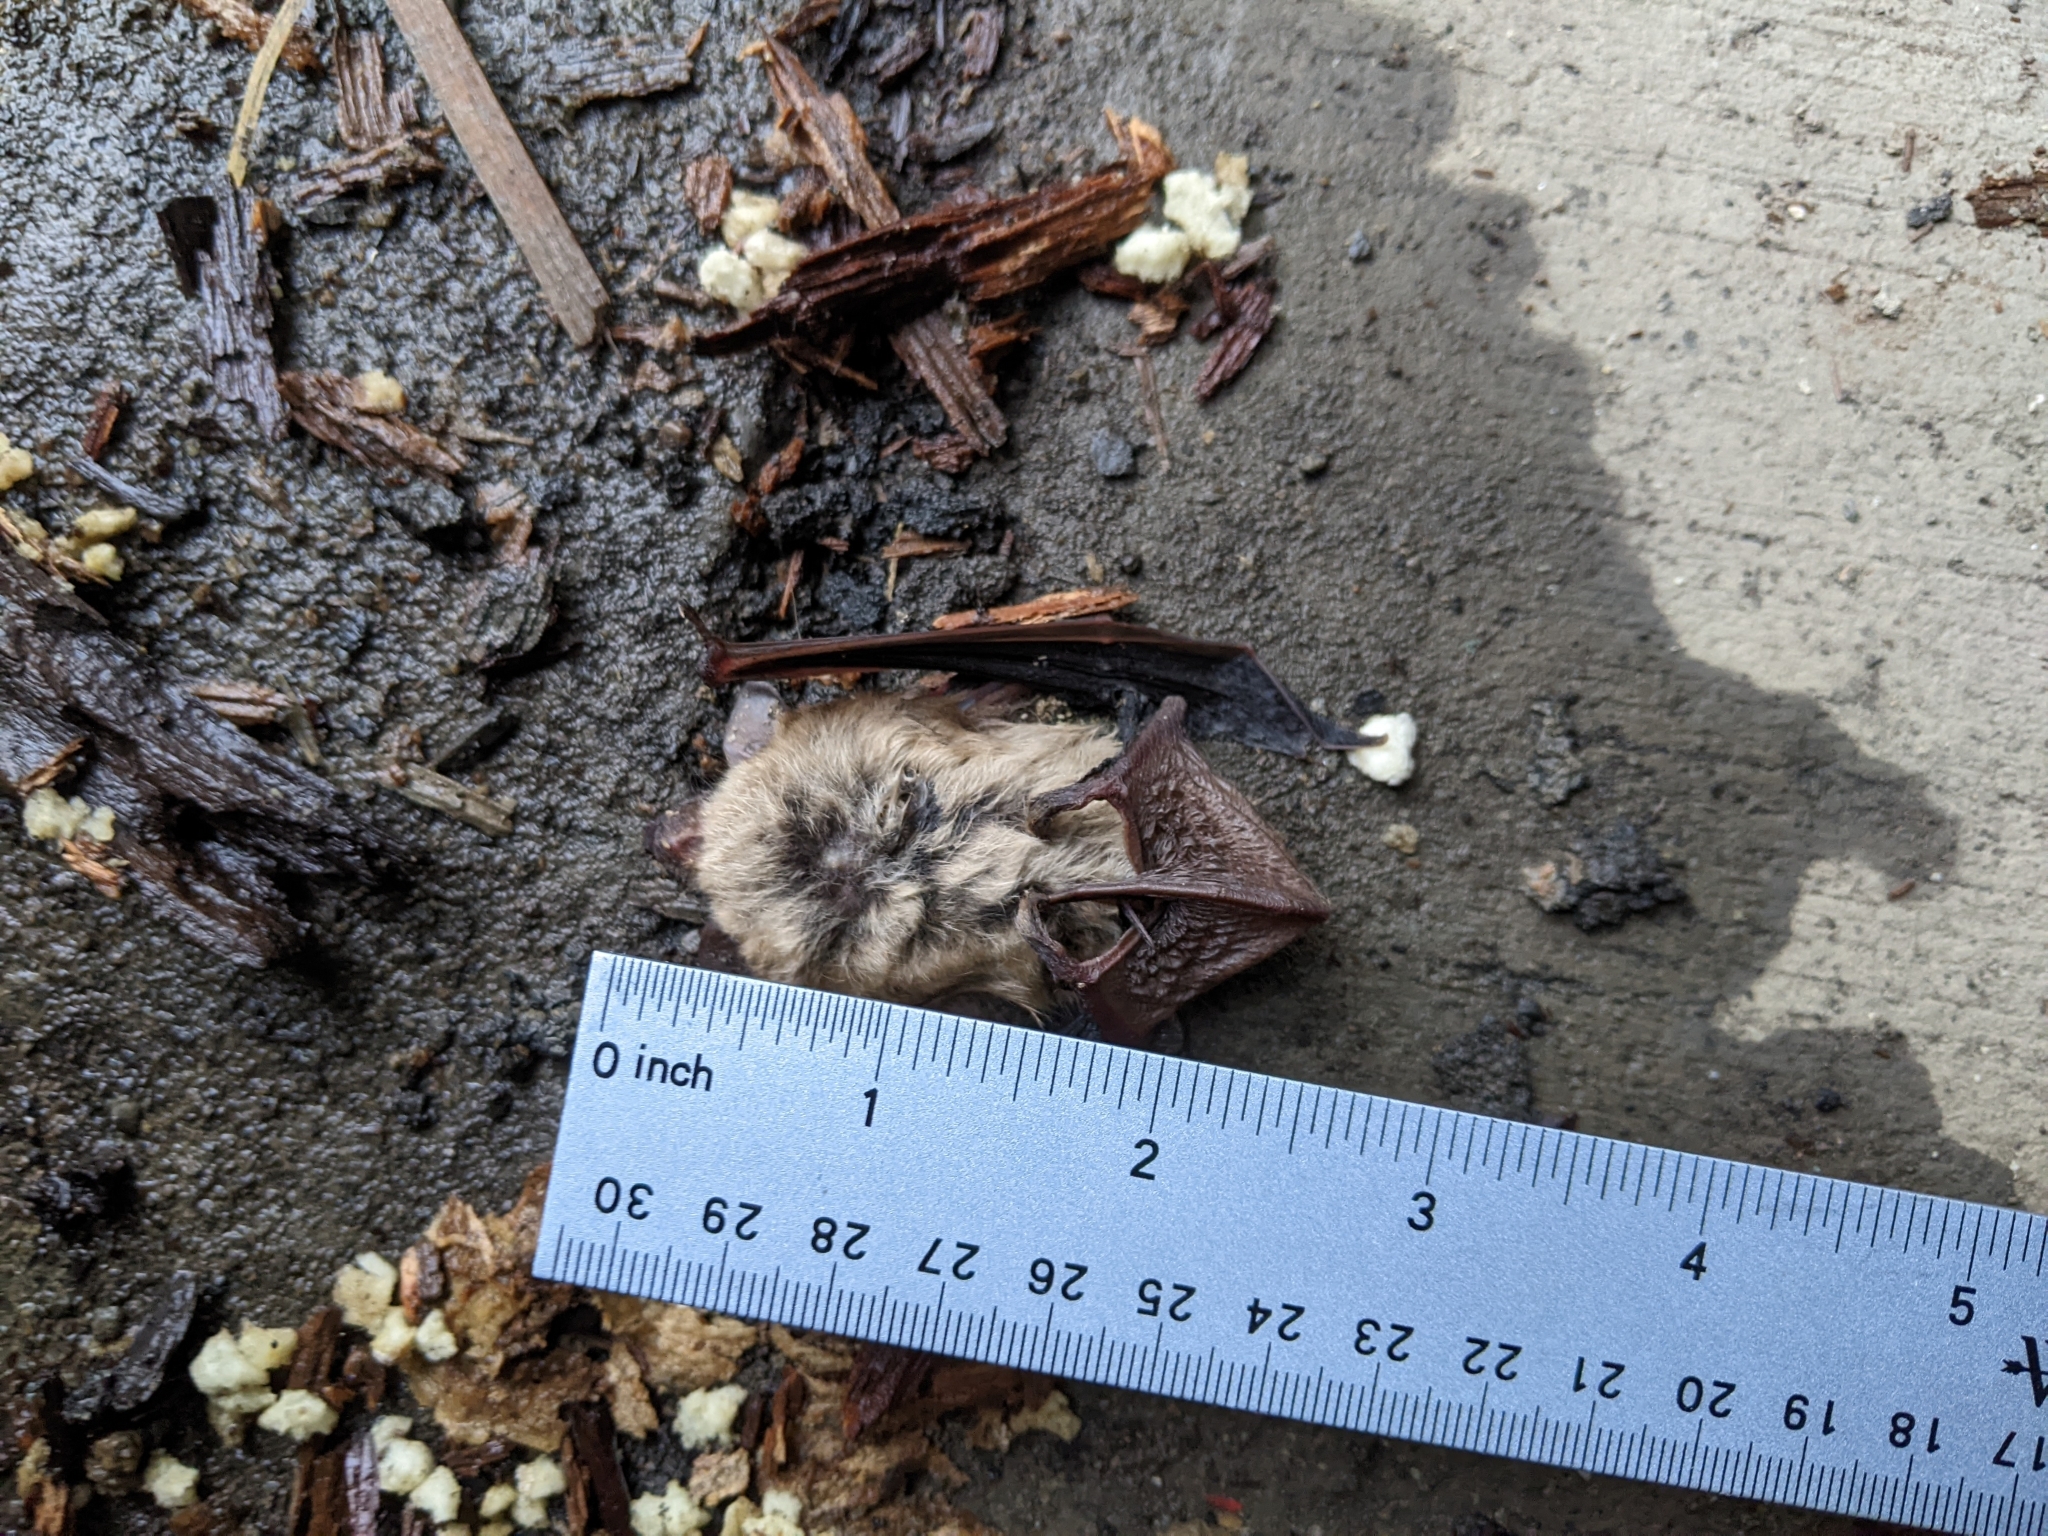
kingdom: Animalia
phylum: Chordata
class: Mammalia
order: Chiroptera
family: Vespertilionidae
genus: Eptesicus
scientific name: Eptesicus fuscus
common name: Big brown bat
